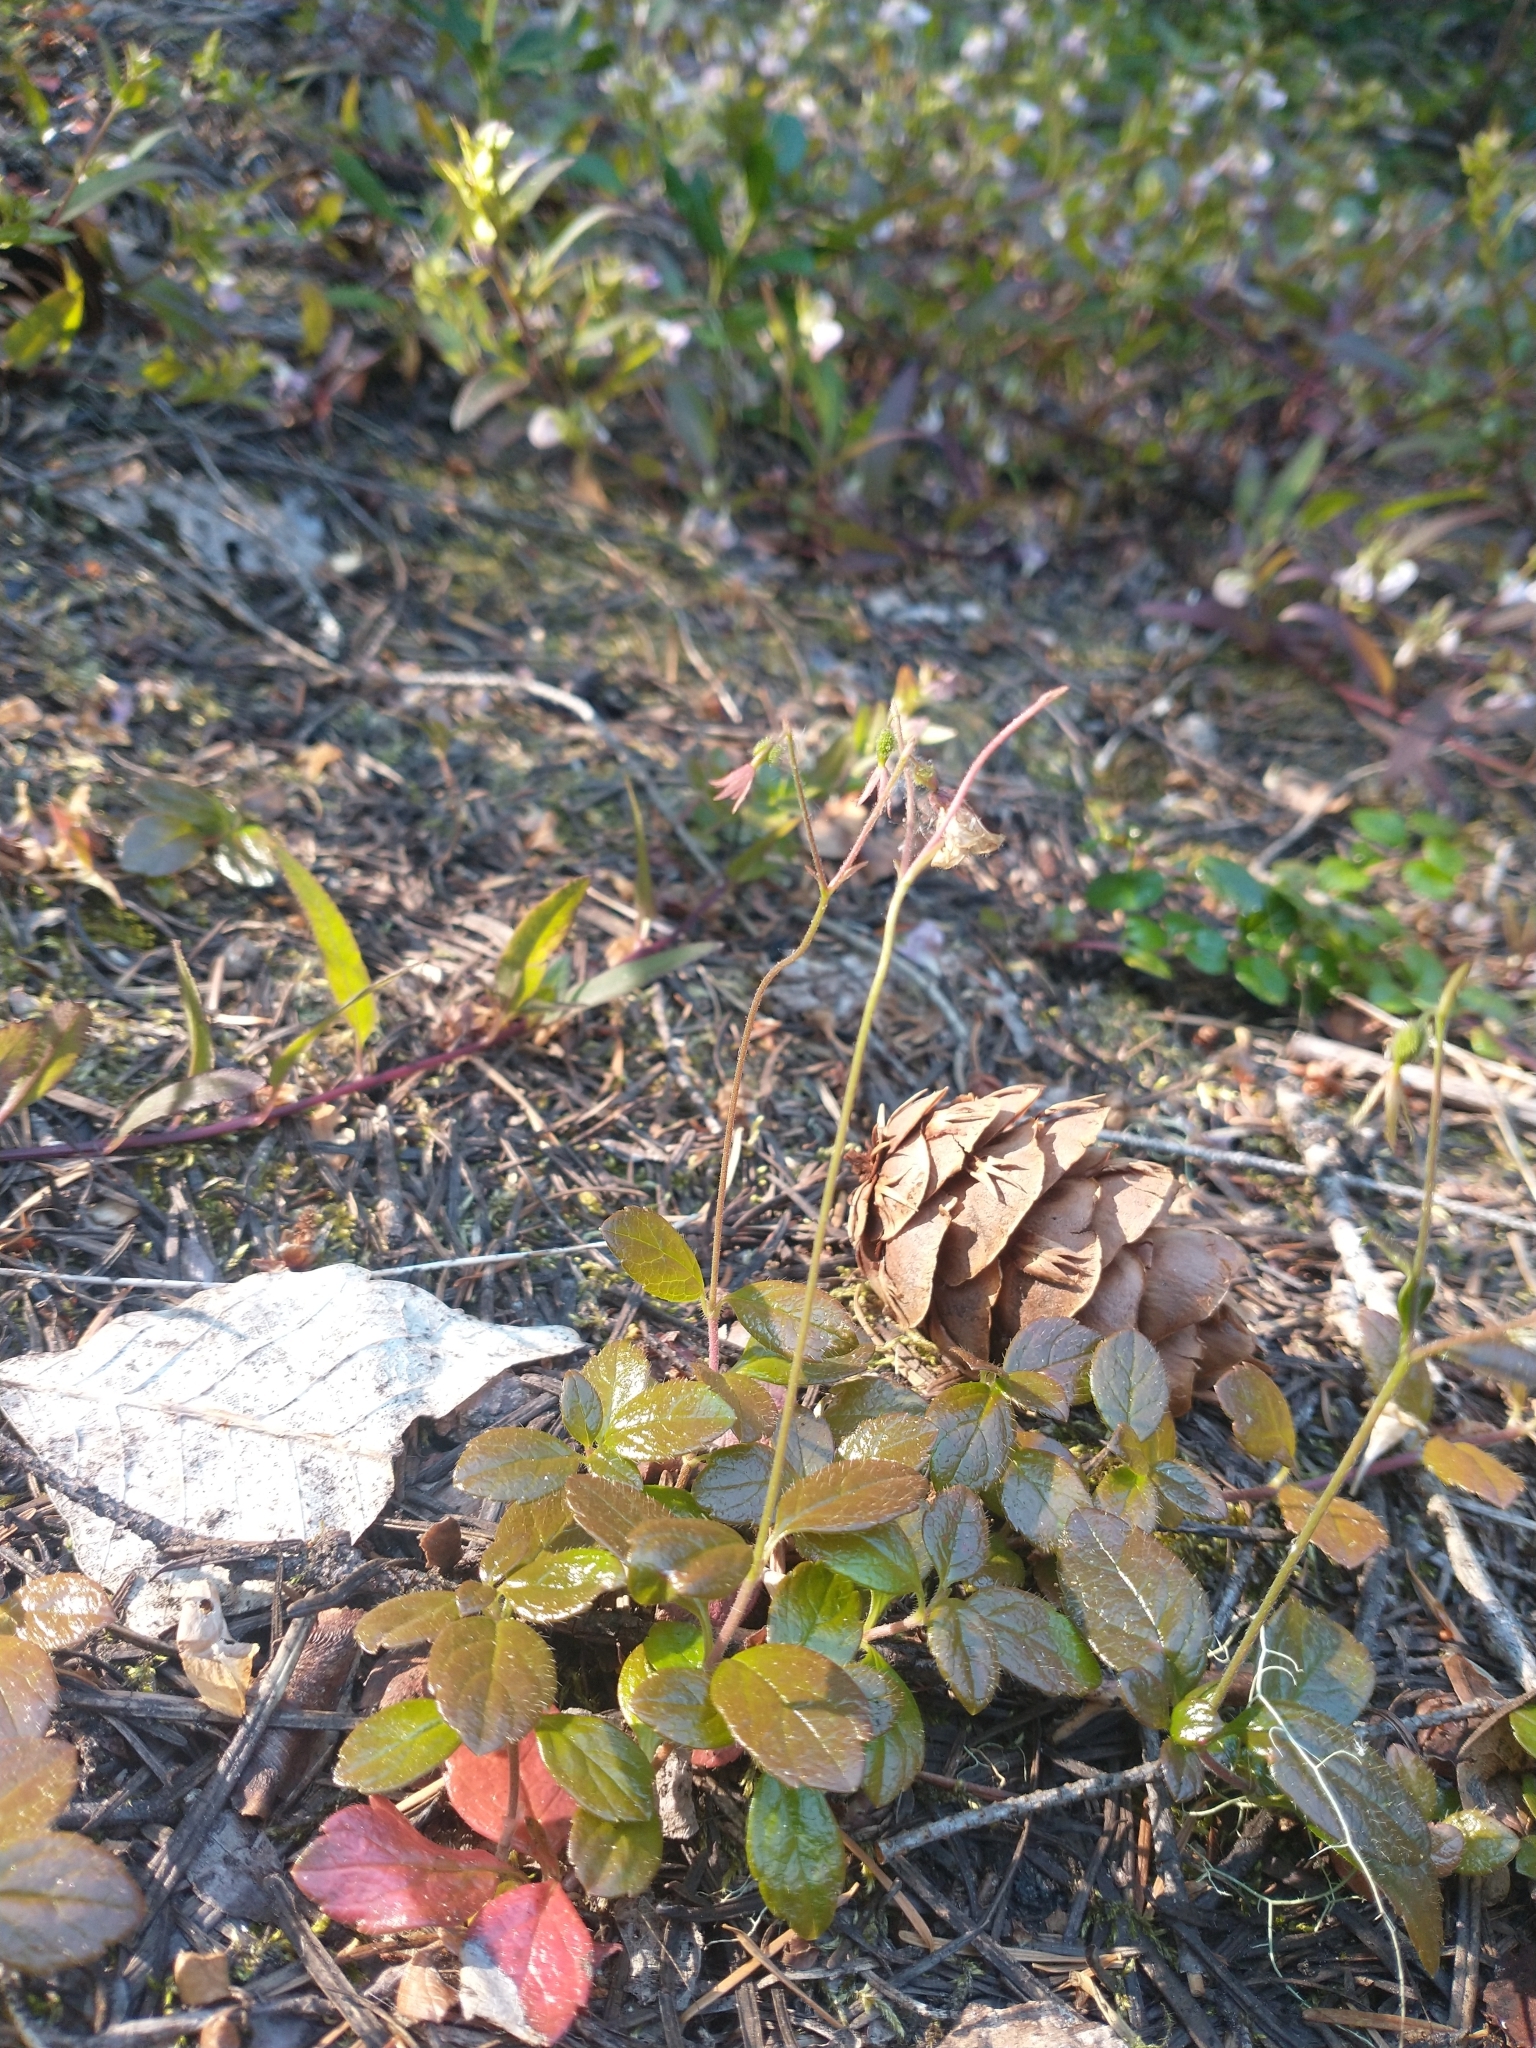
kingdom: Plantae
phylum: Tracheophyta
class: Magnoliopsida
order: Dipsacales
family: Caprifoliaceae
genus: Linnaea
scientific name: Linnaea borealis
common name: Twinflower
